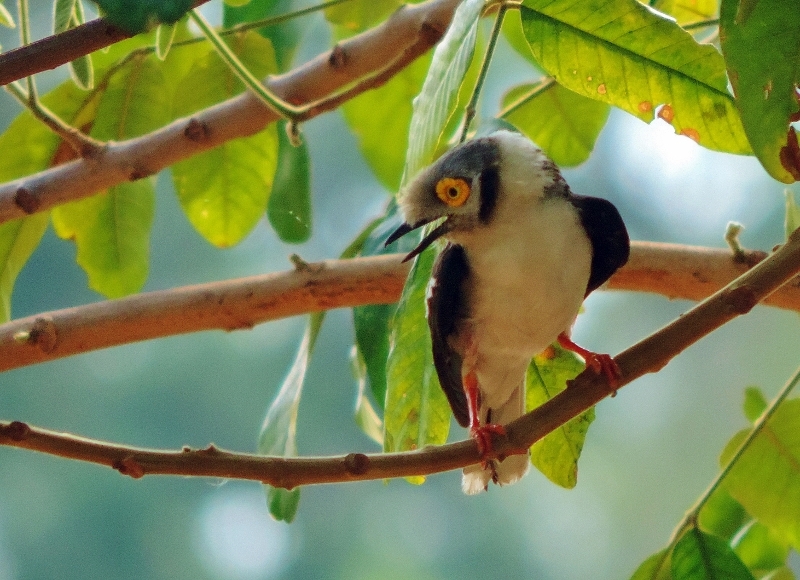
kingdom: Animalia
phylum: Chordata
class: Aves
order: Passeriformes
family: Prionopidae
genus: Prionops
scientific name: Prionops plumatus
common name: White-crested helmetshrike
